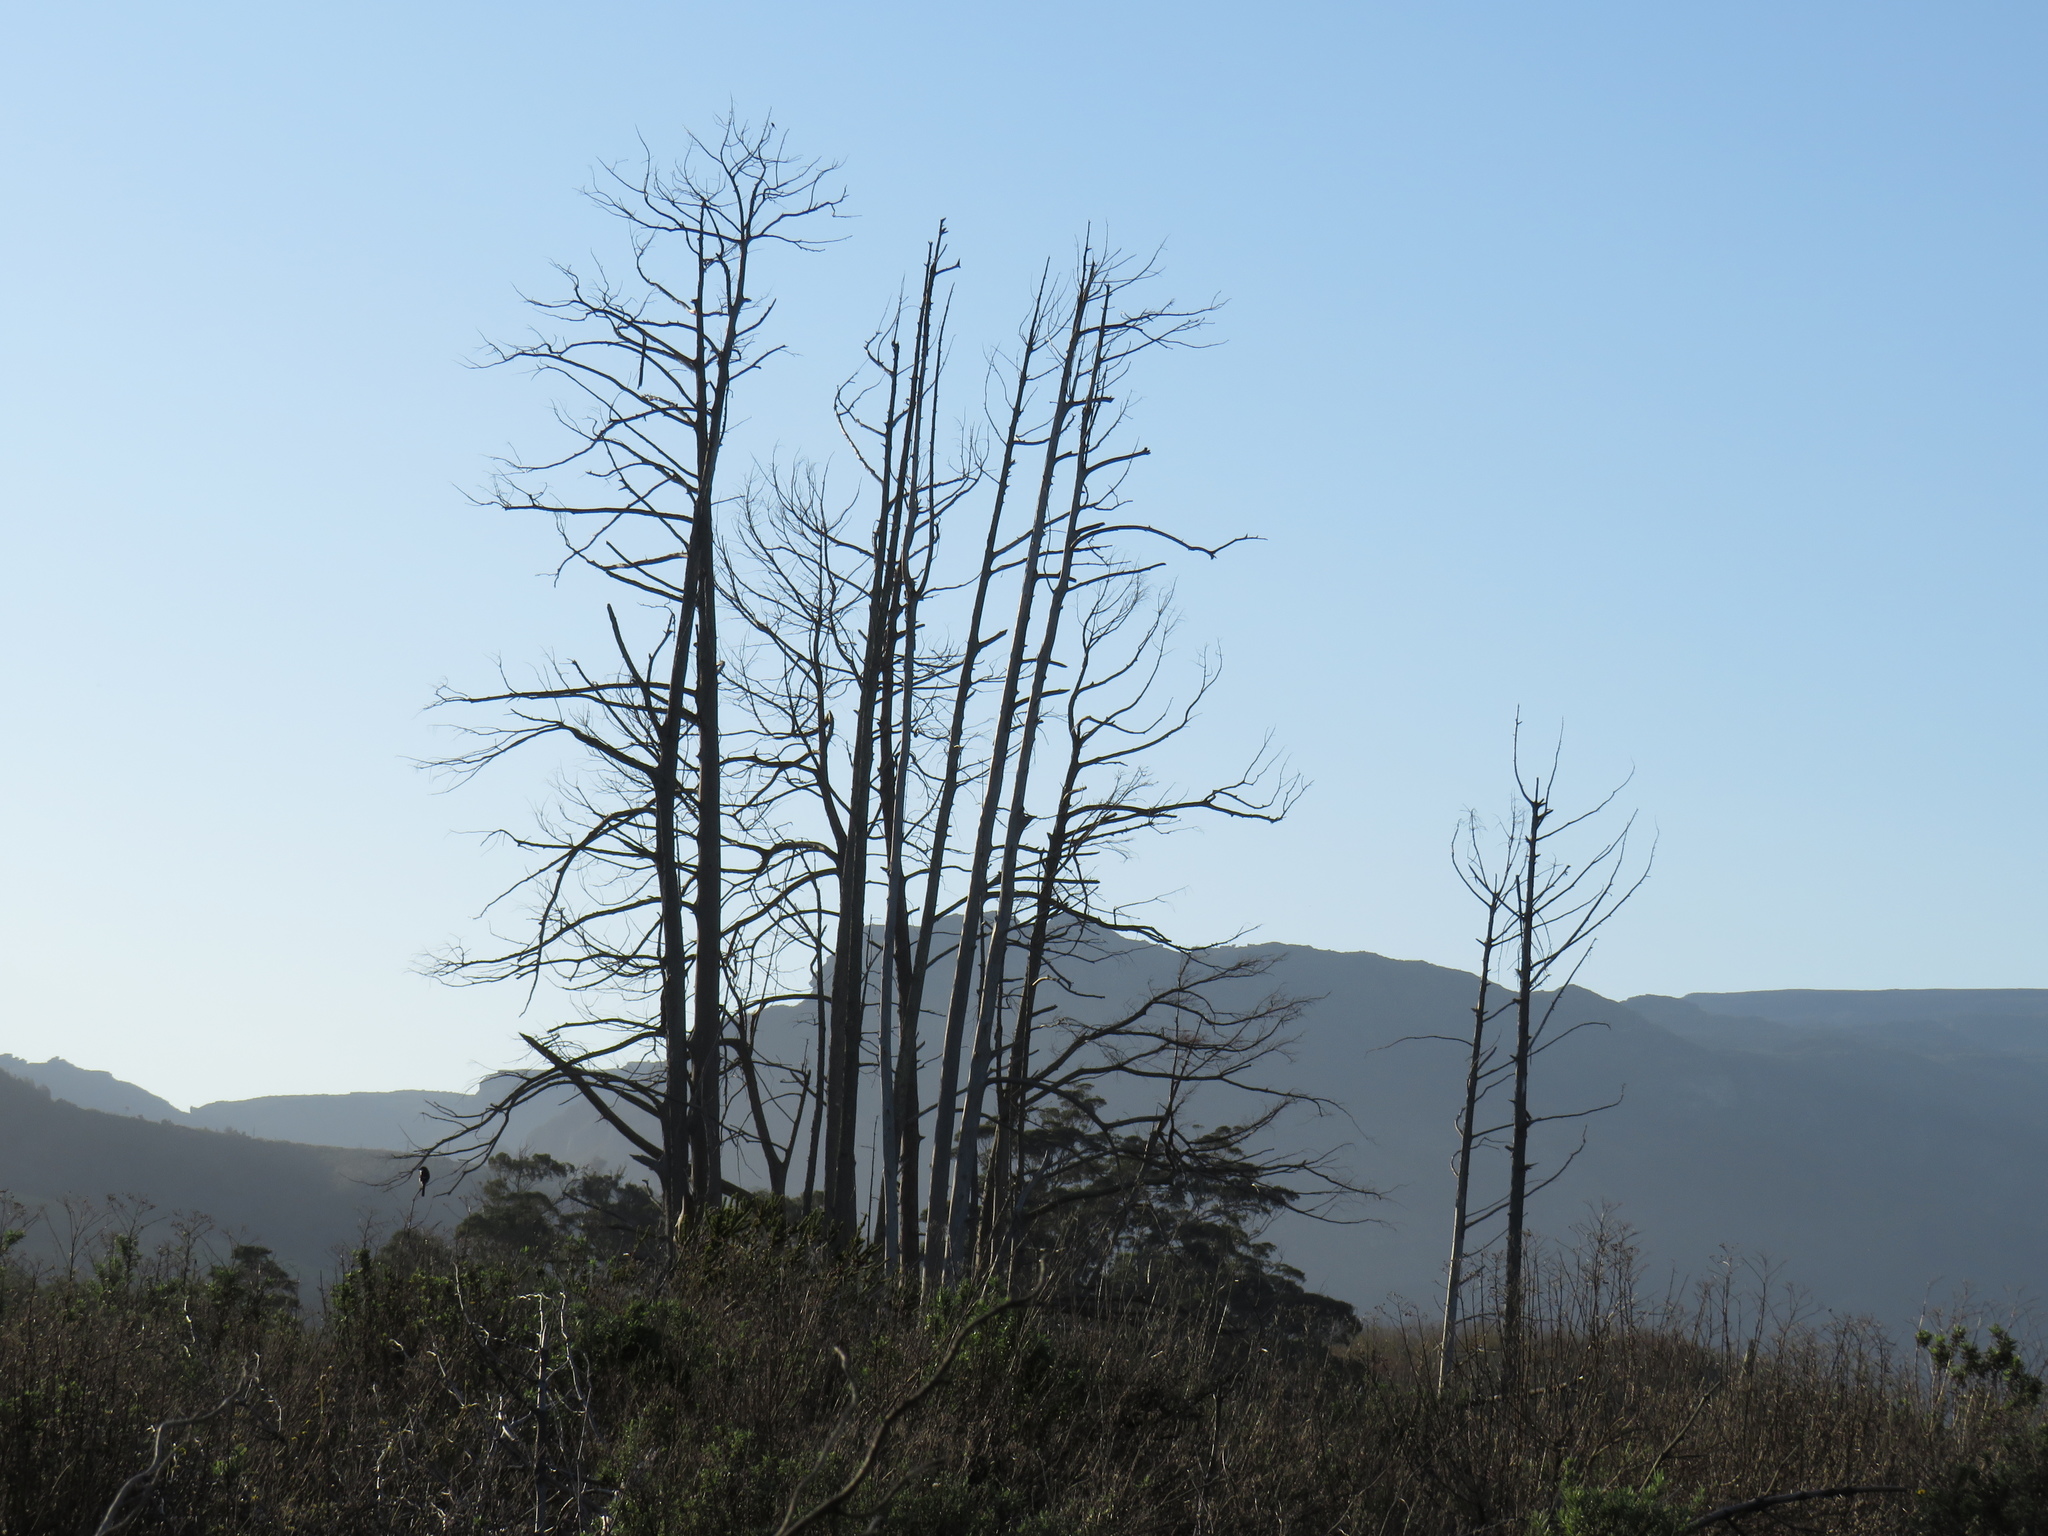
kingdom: Plantae
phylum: Tracheophyta
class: Pinopsida
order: Pinales
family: Cupressaceae
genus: Taxodium
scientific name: Taxodium distichum
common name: Bald cypress
